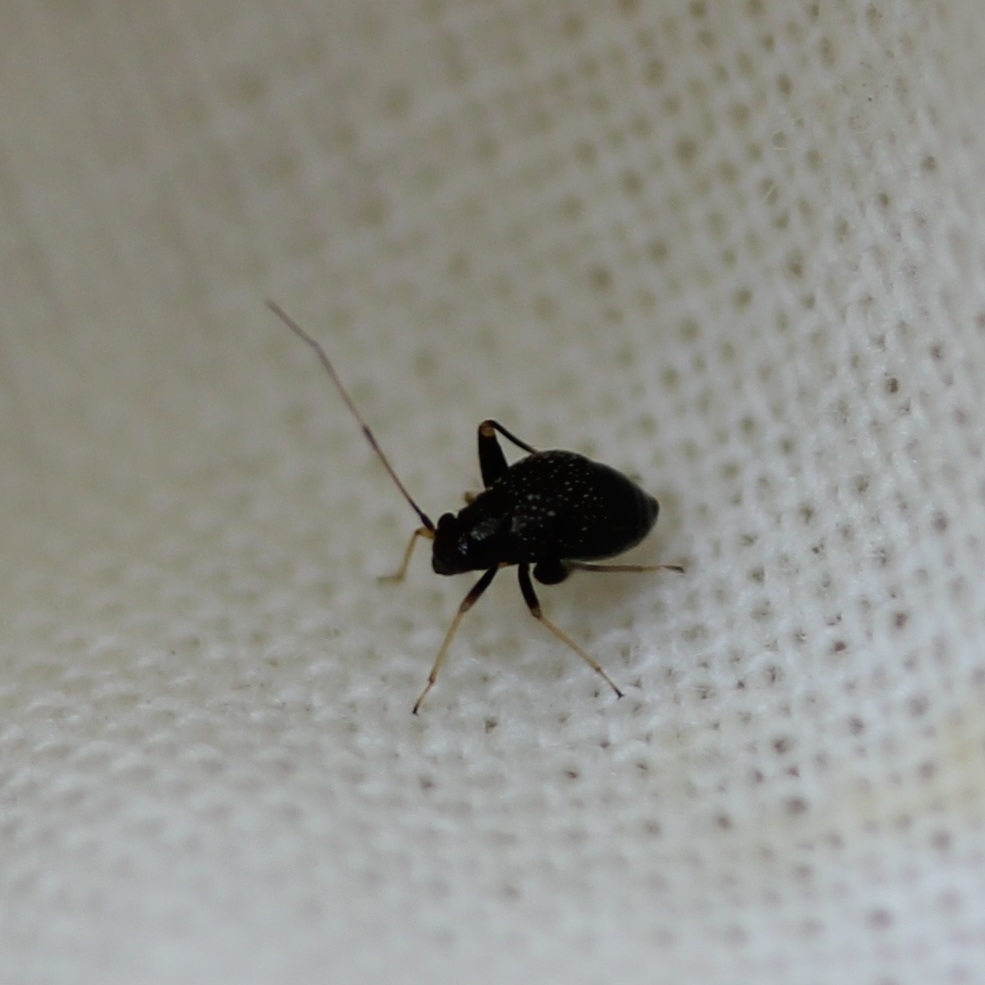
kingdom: Animalia
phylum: Arthropoda
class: Insecta
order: Hemiptera
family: Miridae
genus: Microtechnites
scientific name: Microtechnites bractatus
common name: Garden fleahopper
